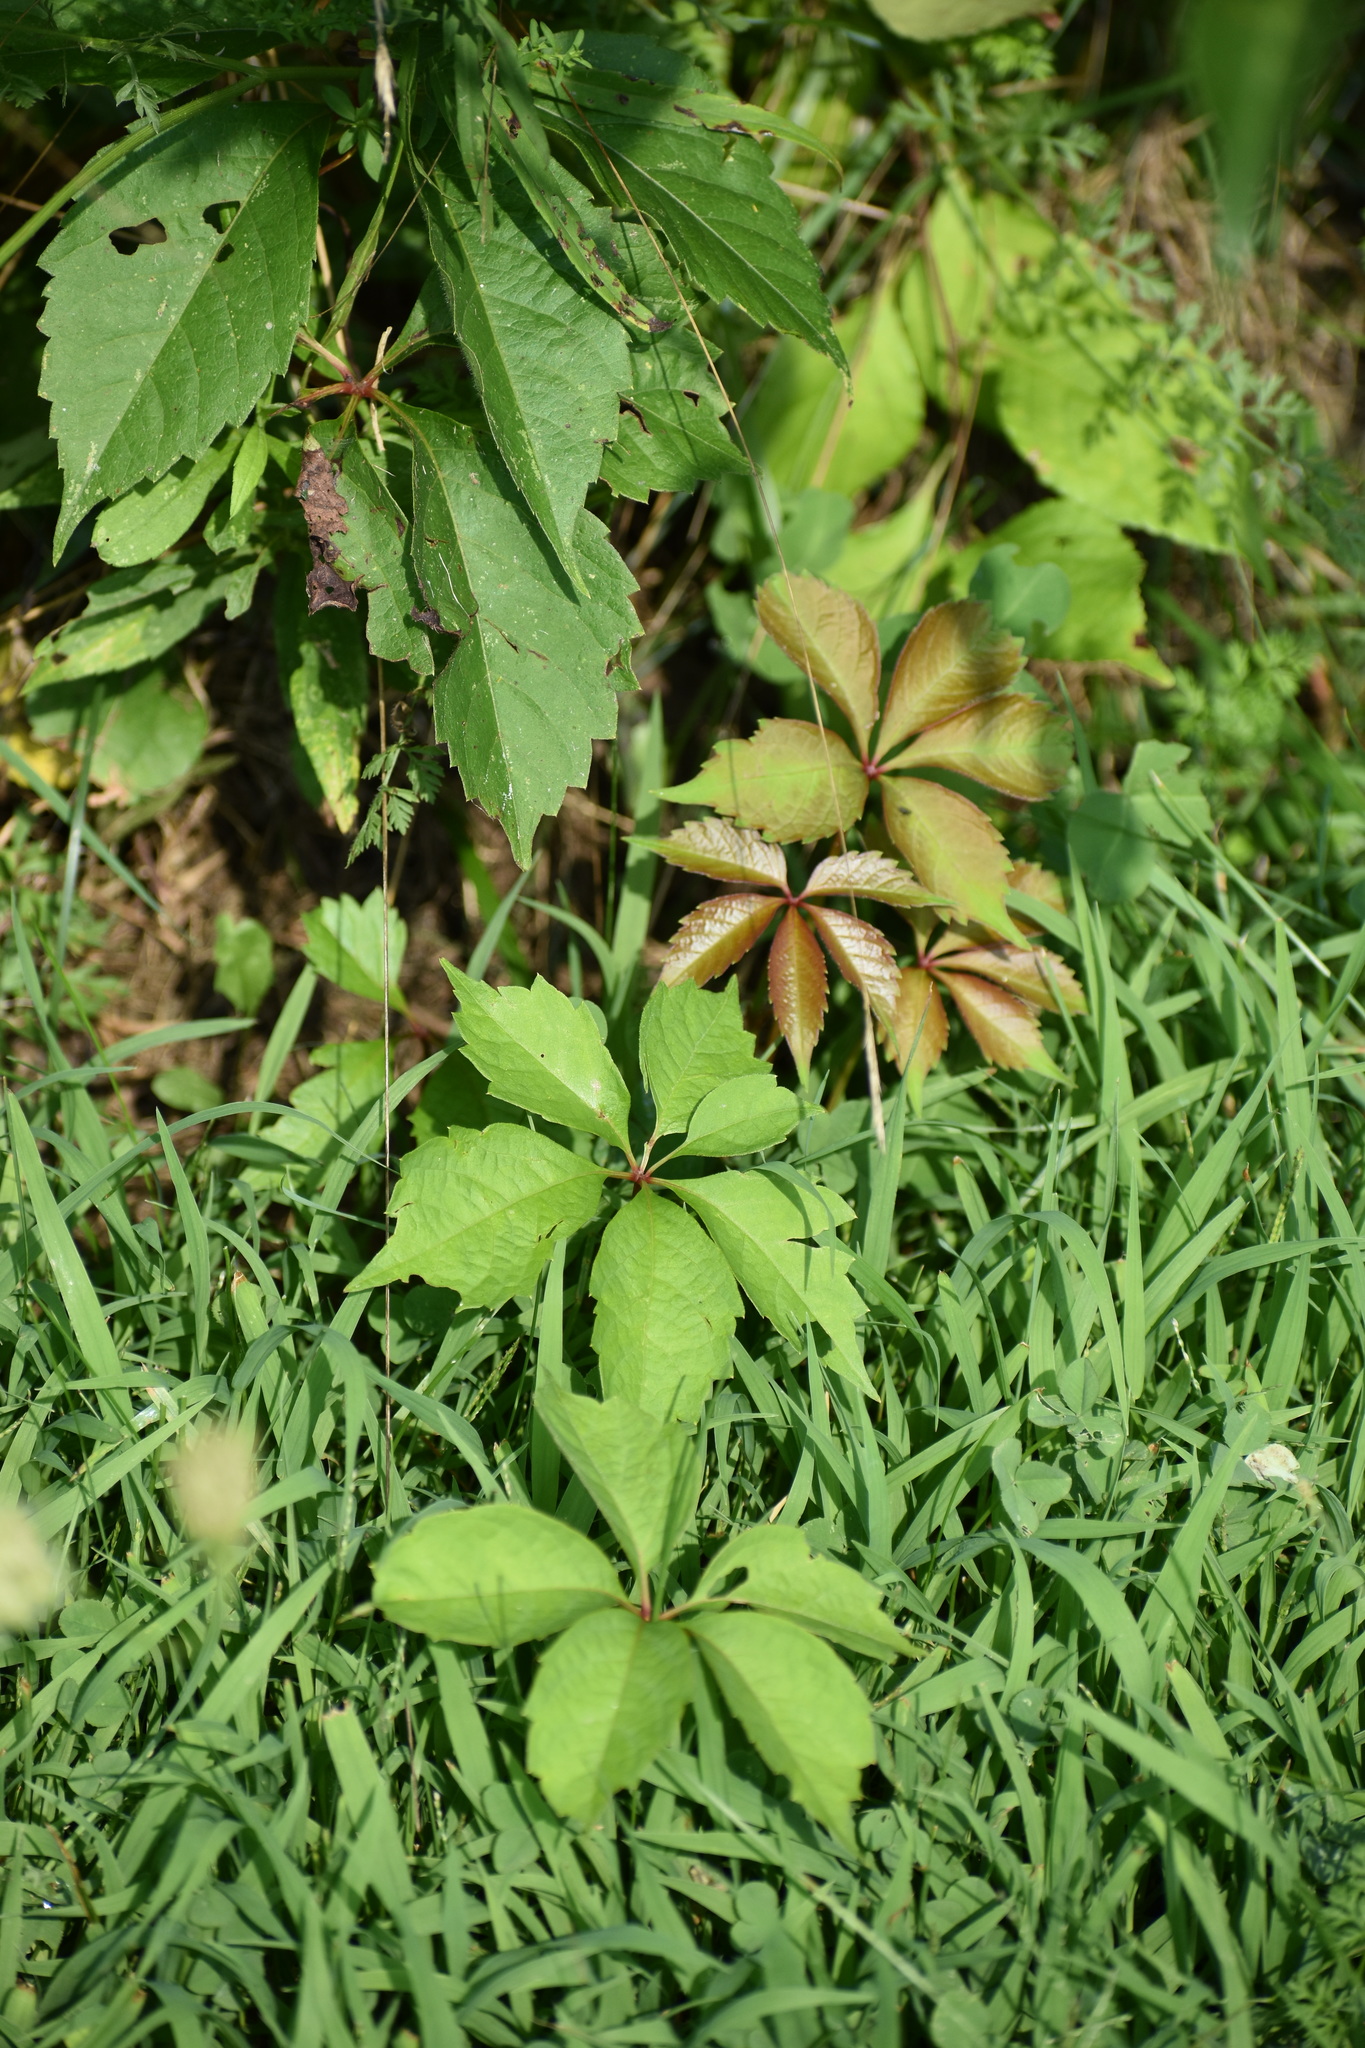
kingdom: Plantae
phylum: Tracheophyta
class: Magnoliopsida
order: Vitales
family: Vitaceae
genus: Parthenocissus
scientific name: Parthenocissus quinquefolia
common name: Virginia-creeper
